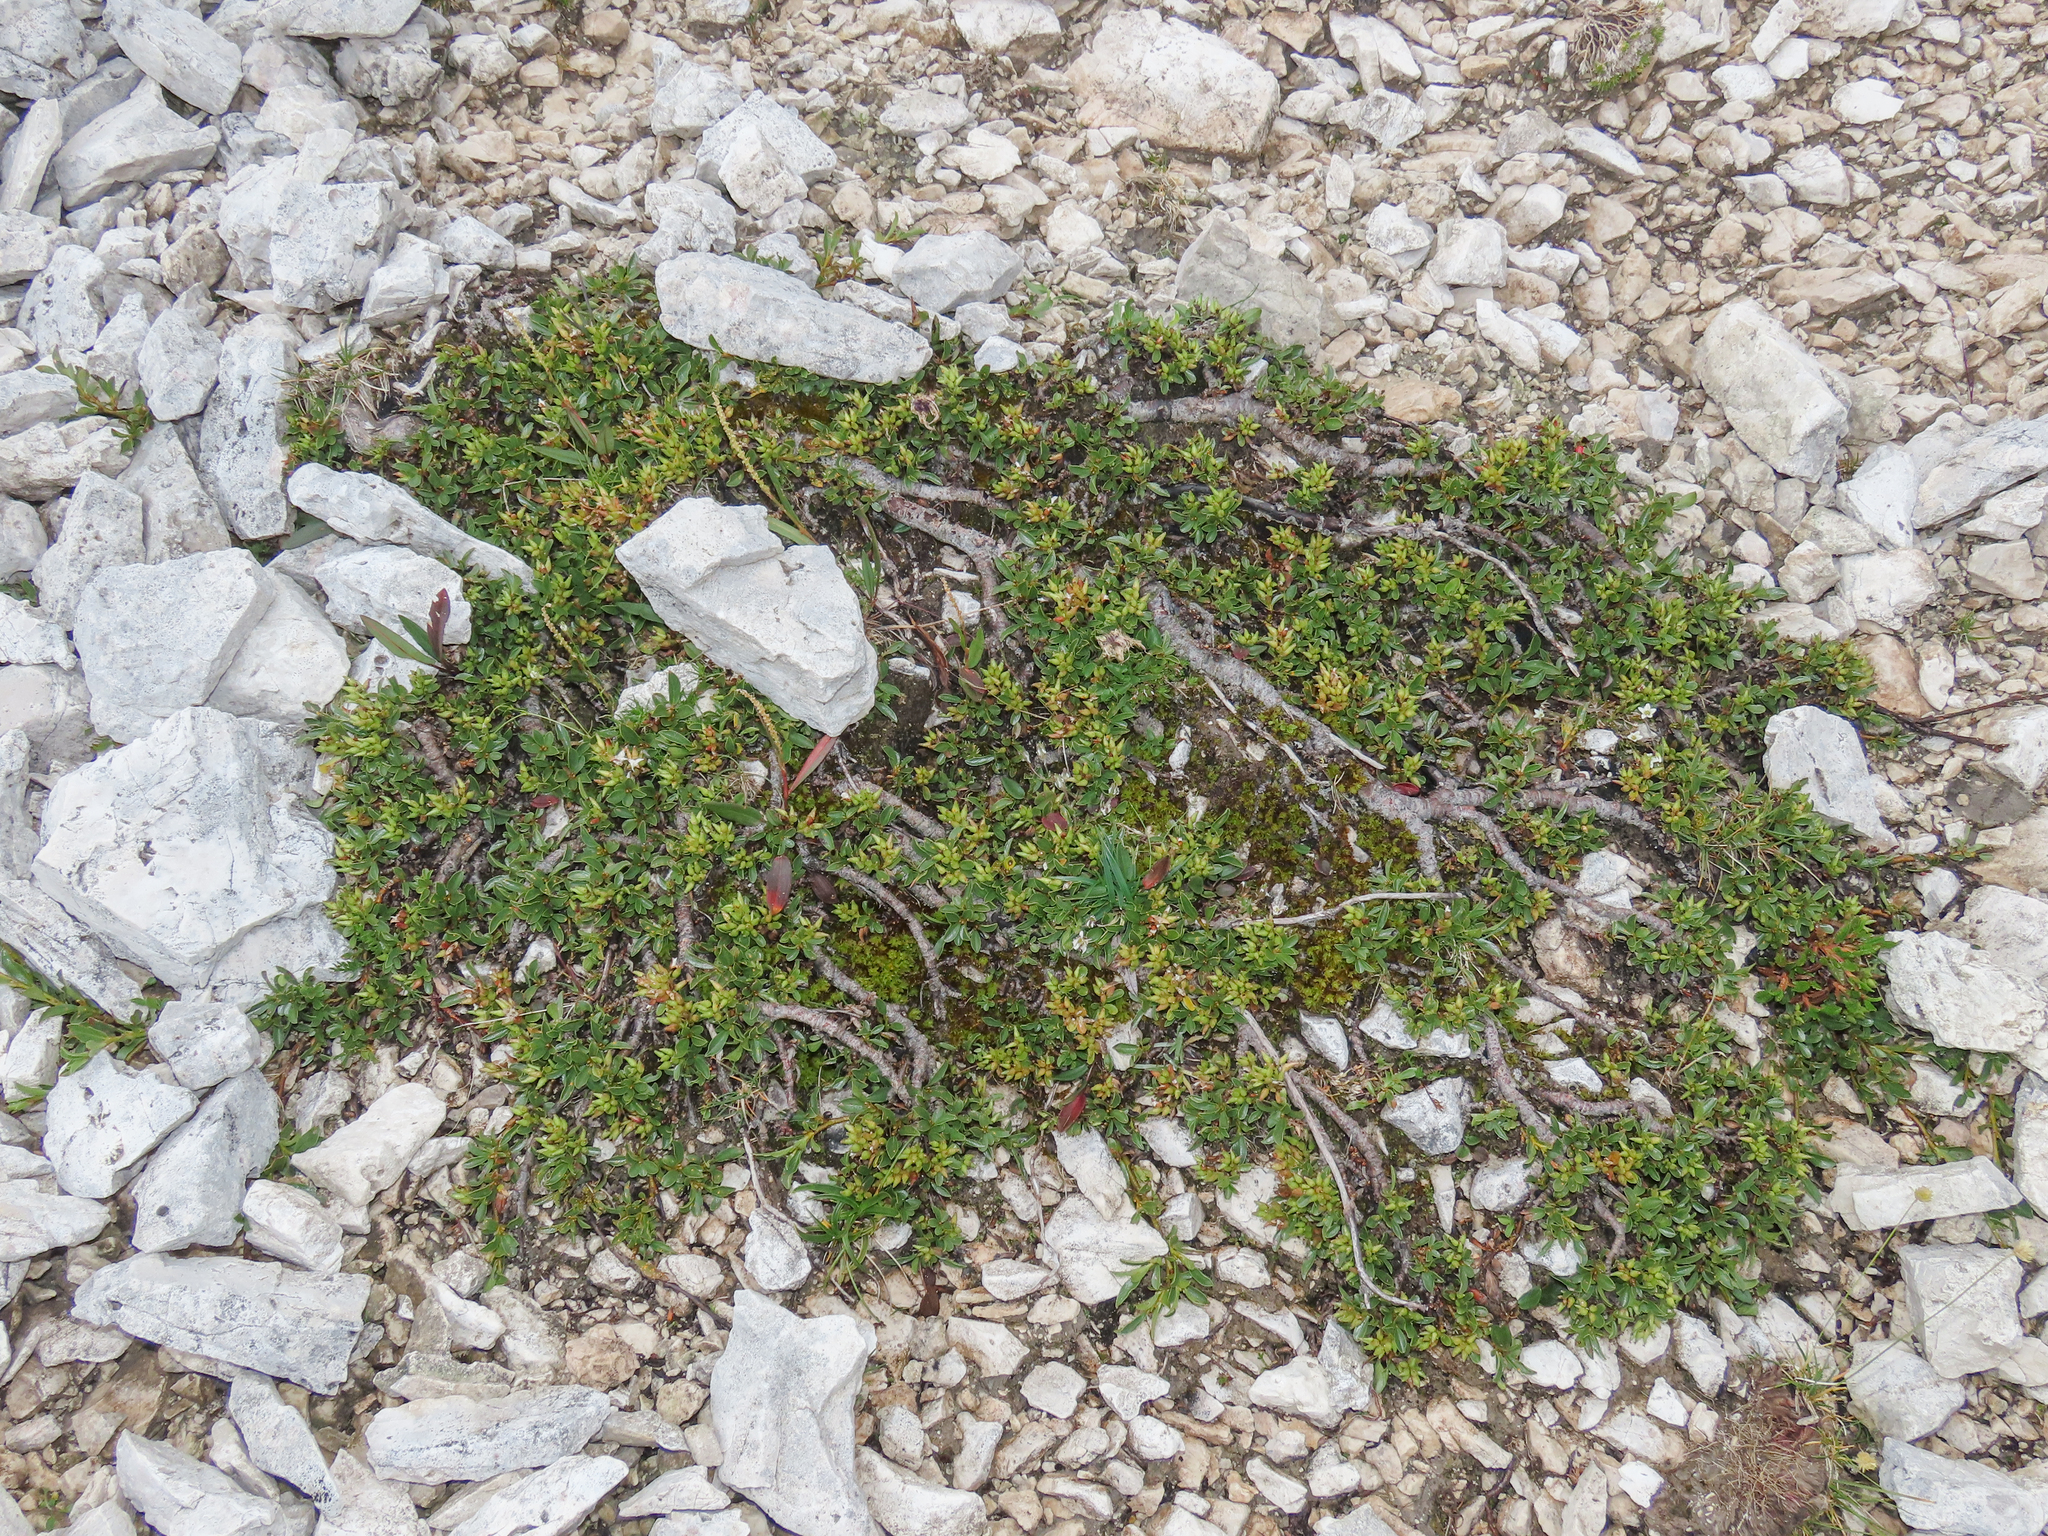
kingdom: Plantae
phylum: Tracheophyta
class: Magnoliopsida
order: Malpighiales
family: Salicaceae
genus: Salix
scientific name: Salix retusa
